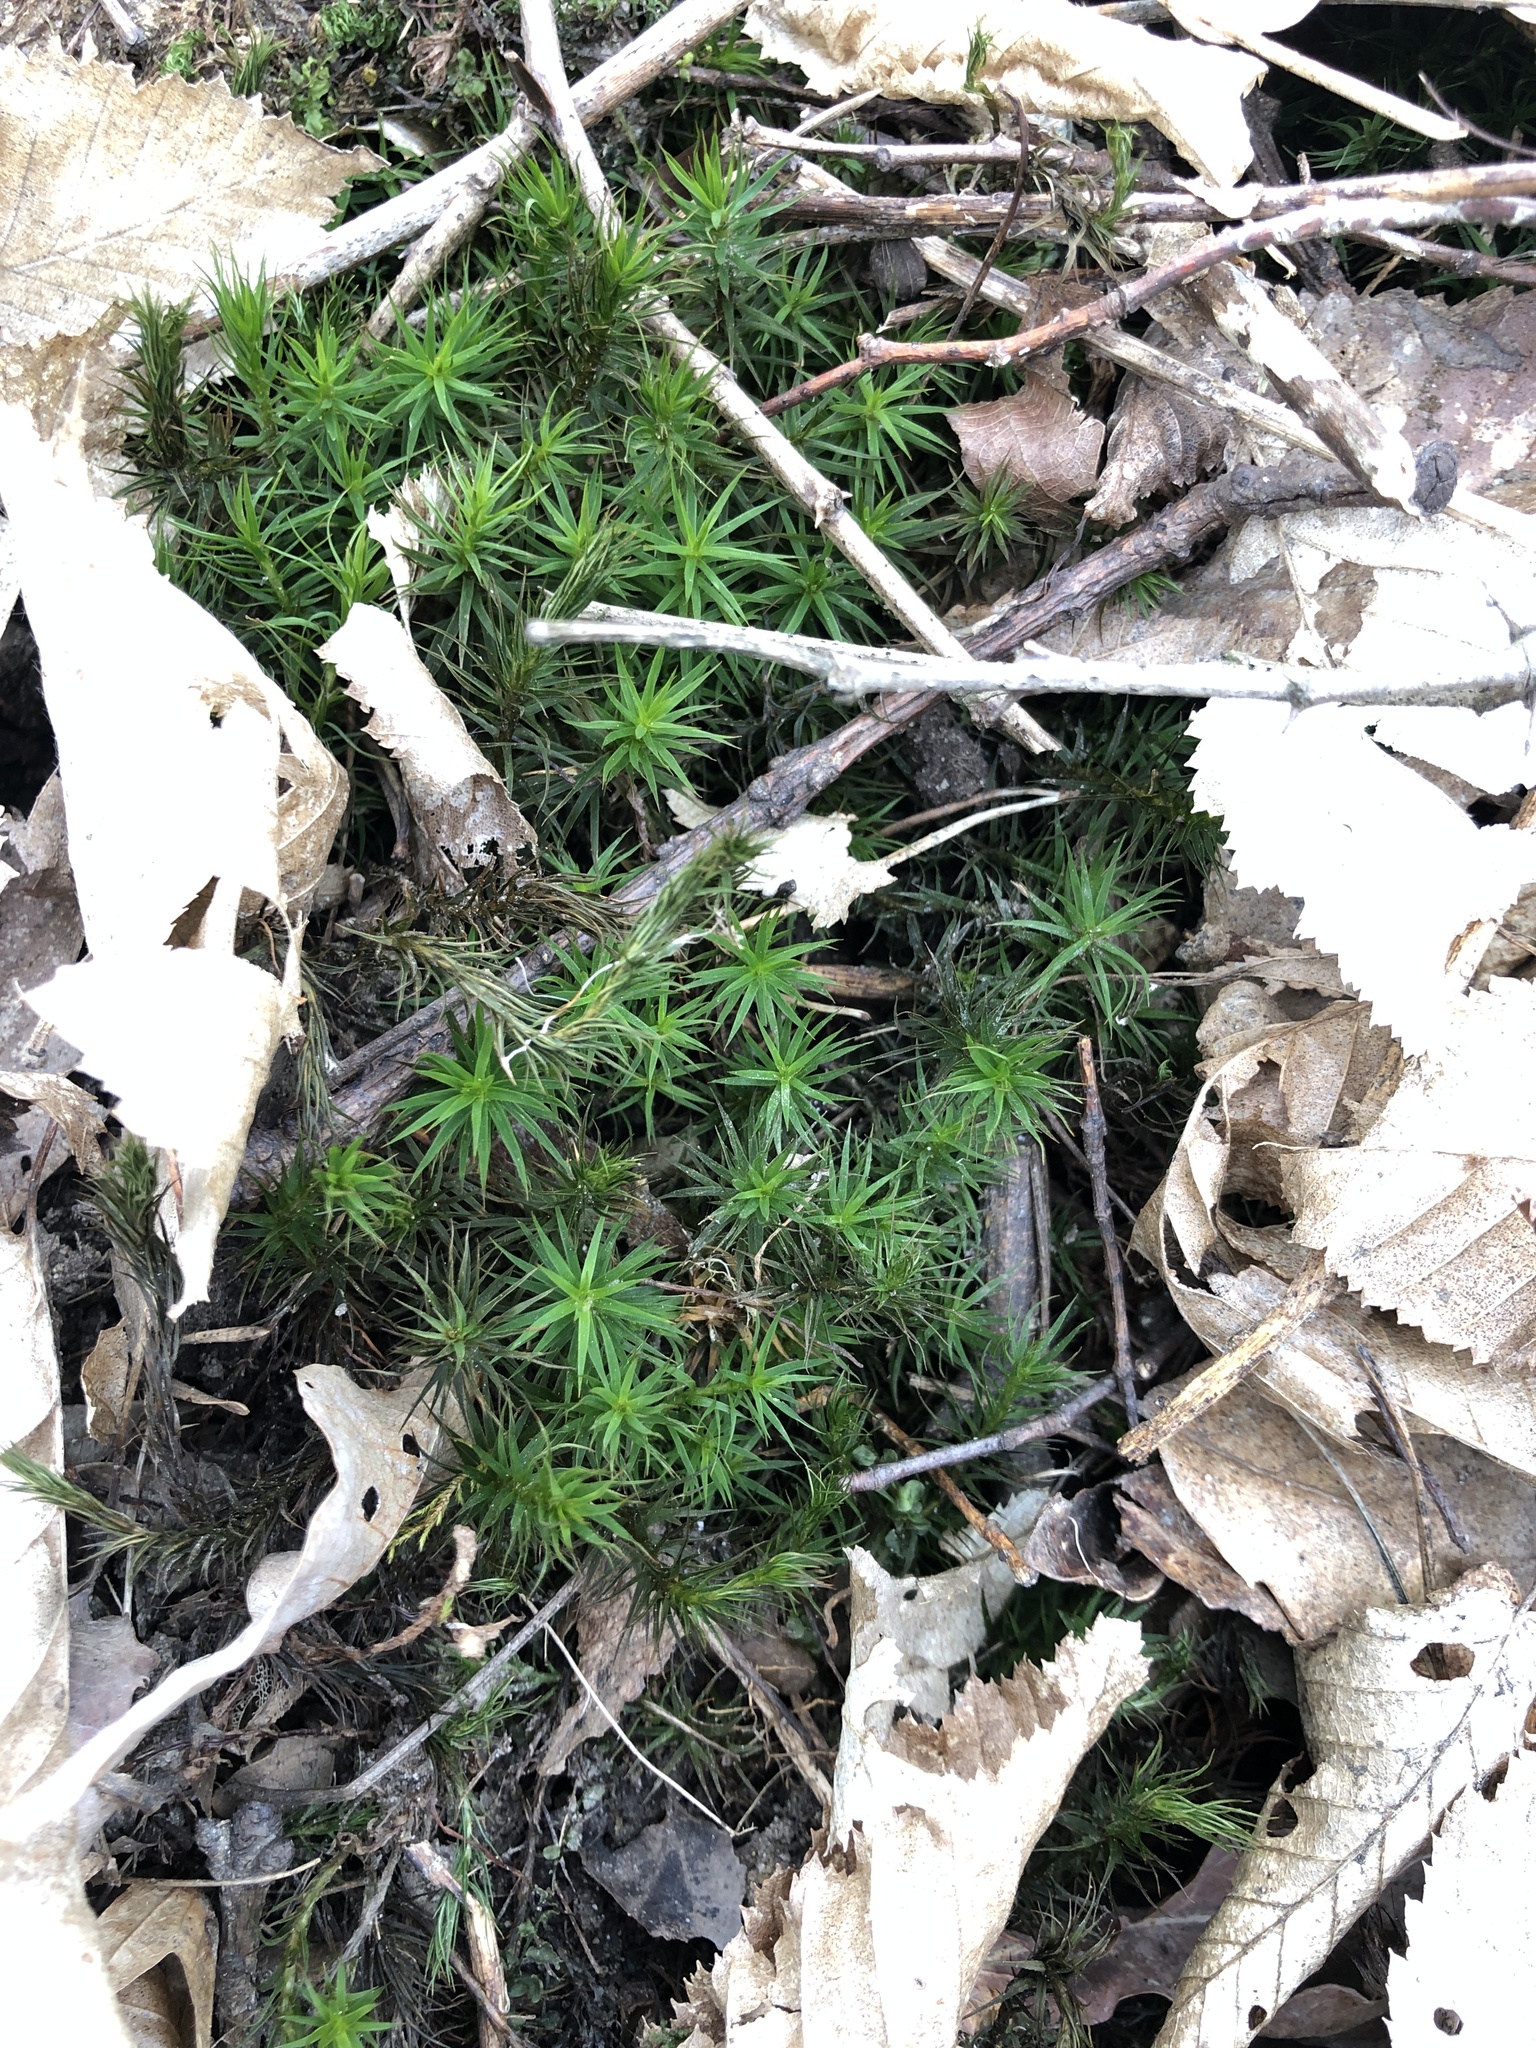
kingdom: Plantae
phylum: Bryophyta
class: Polytrichopsida
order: Polytrichales
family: Polytrichaceae
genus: Polytrichum
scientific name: Polytrichum formosum
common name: Bank haircap moss
